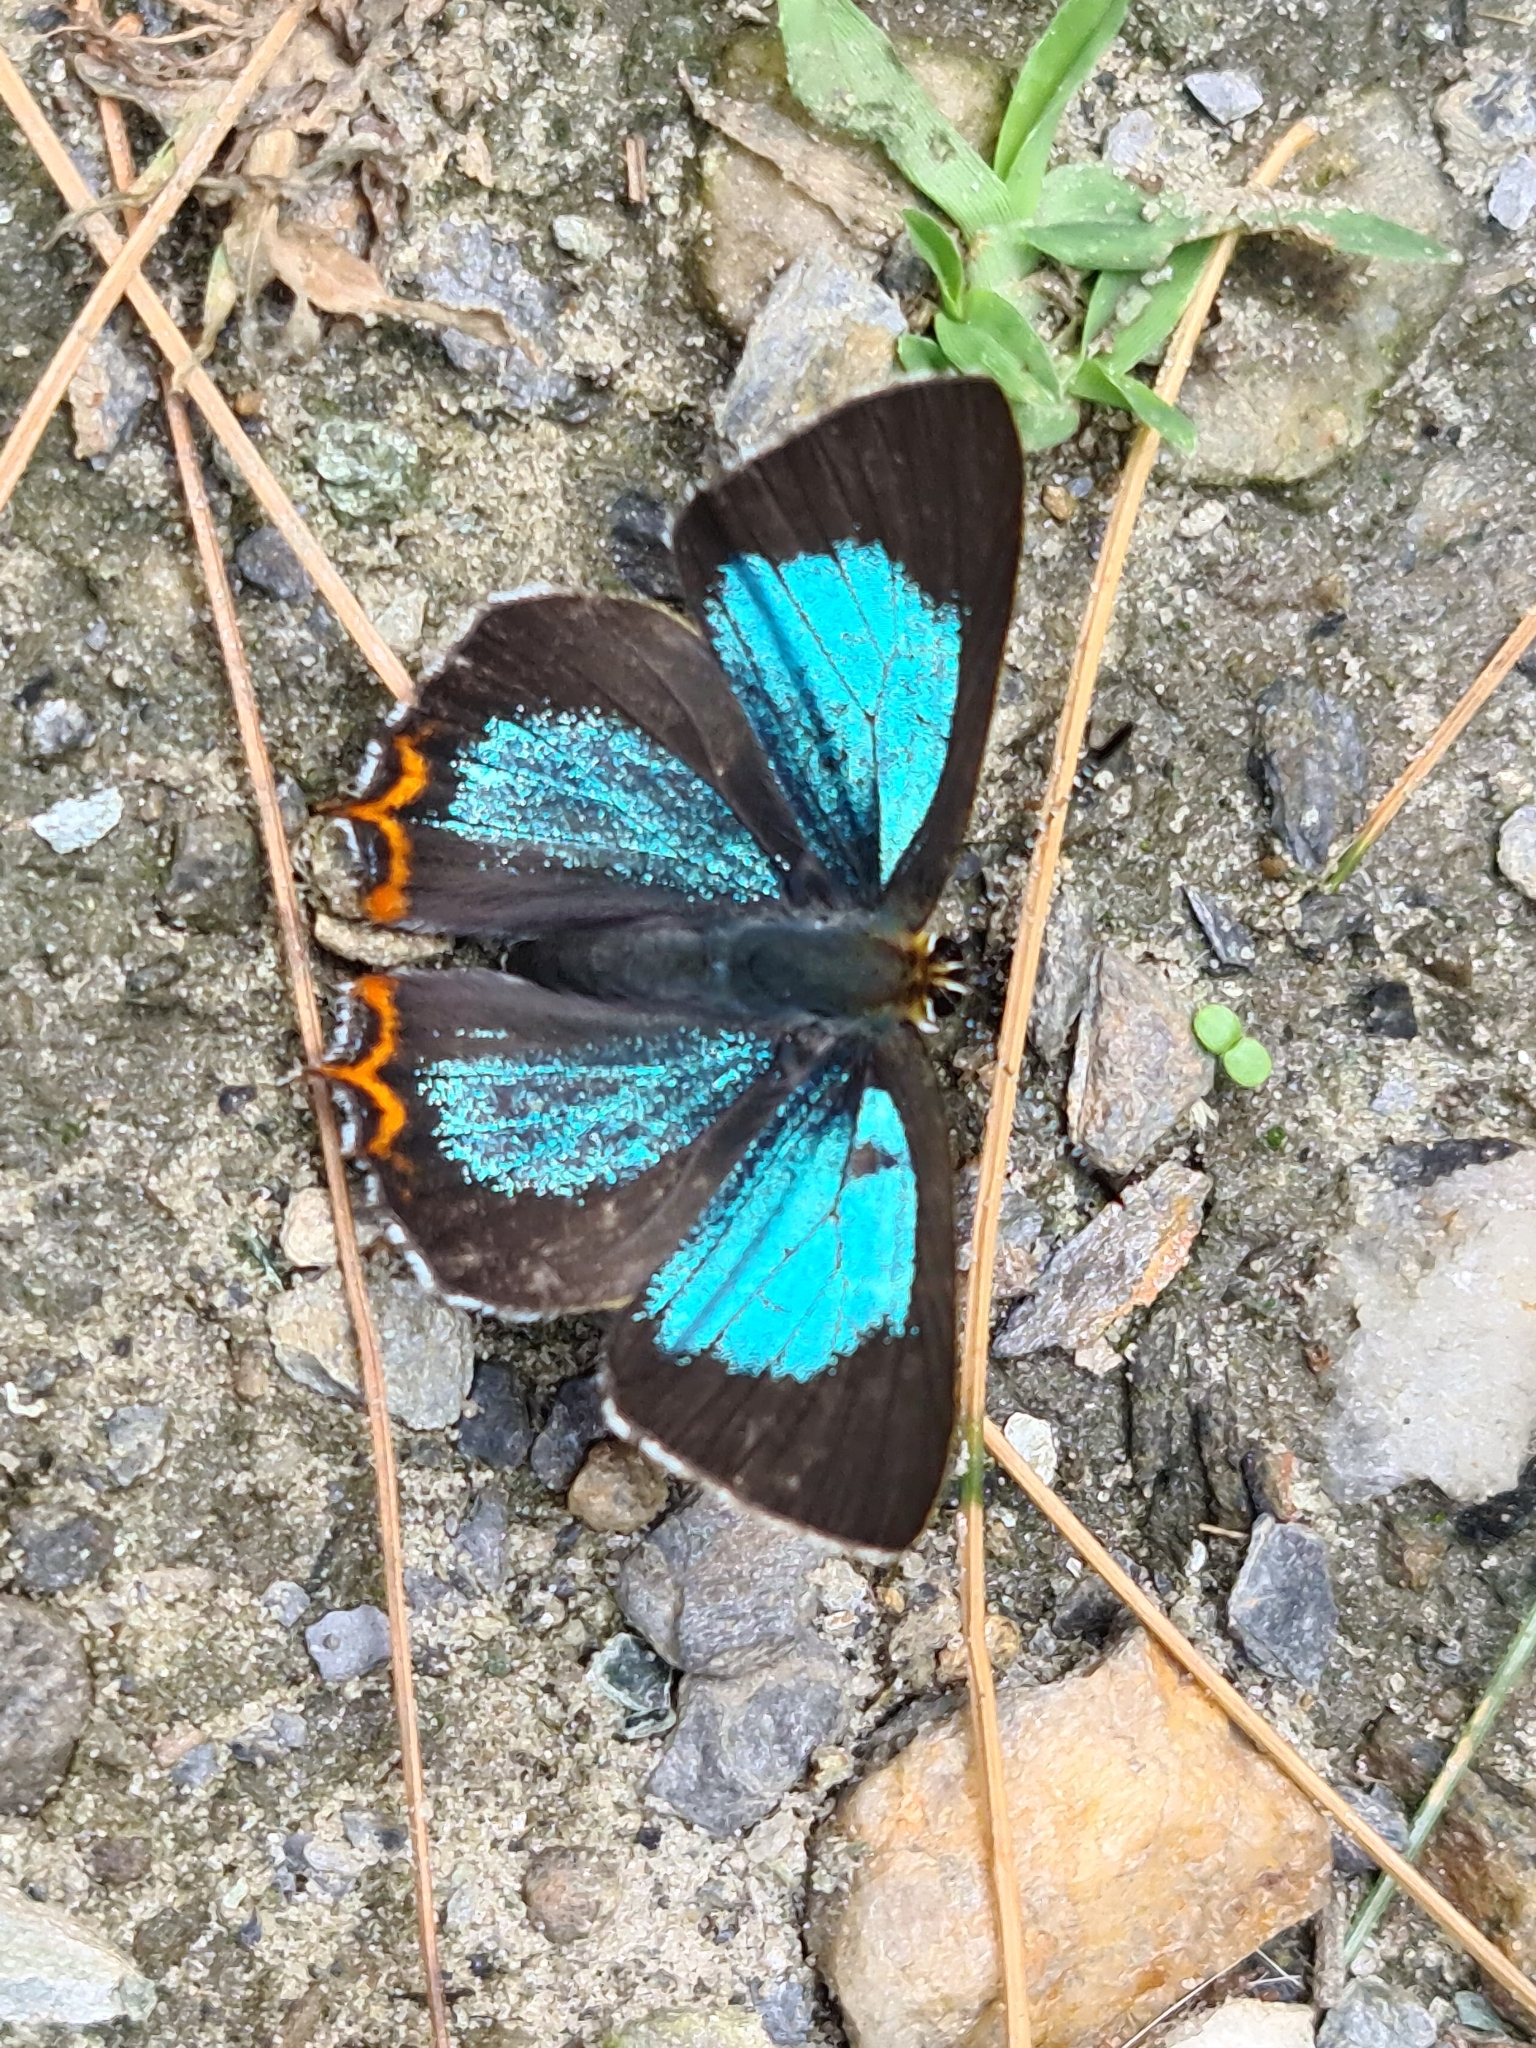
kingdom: Animalia
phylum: Arthropoda
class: Insecta
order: Lepidoptera
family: Lycaenidae
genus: Heliophorus
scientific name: Heliophorus
